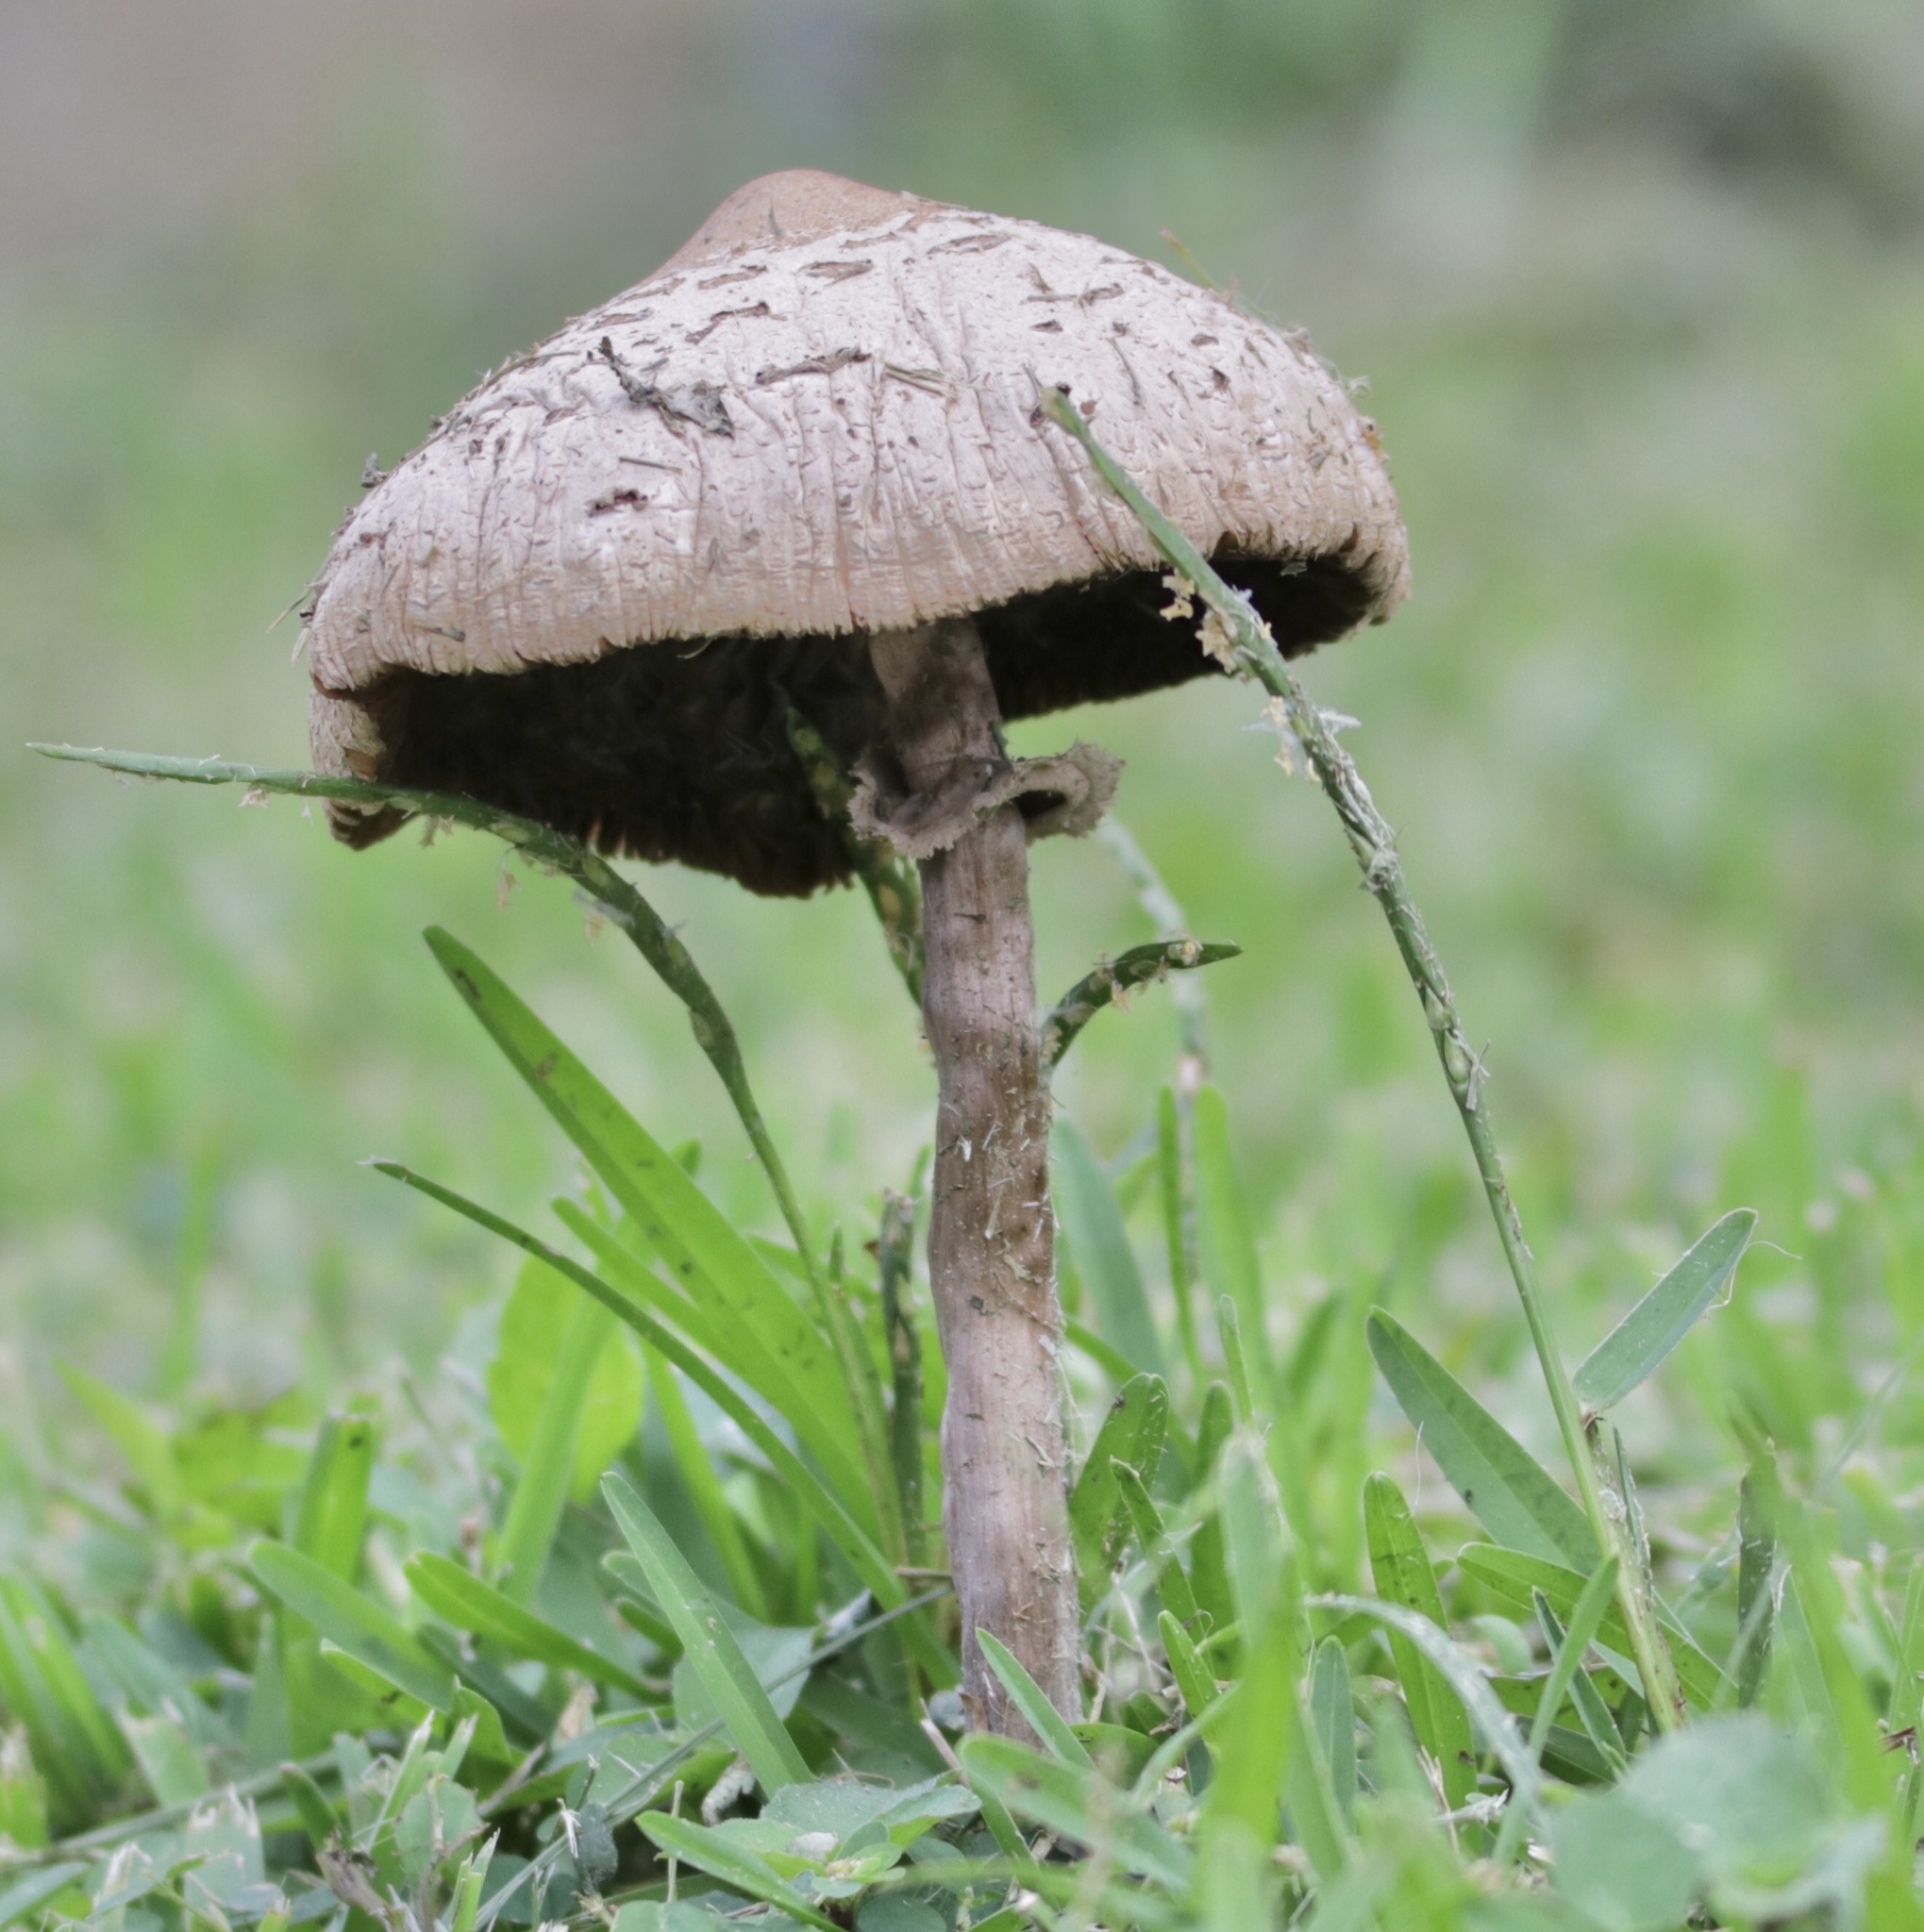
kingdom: Fungi
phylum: Basidiomycota
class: Agaricomycetes
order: Agaricales
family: Agaricaceae
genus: Chlorophyllum
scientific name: Chlorophyllum molybdites
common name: False parasol
